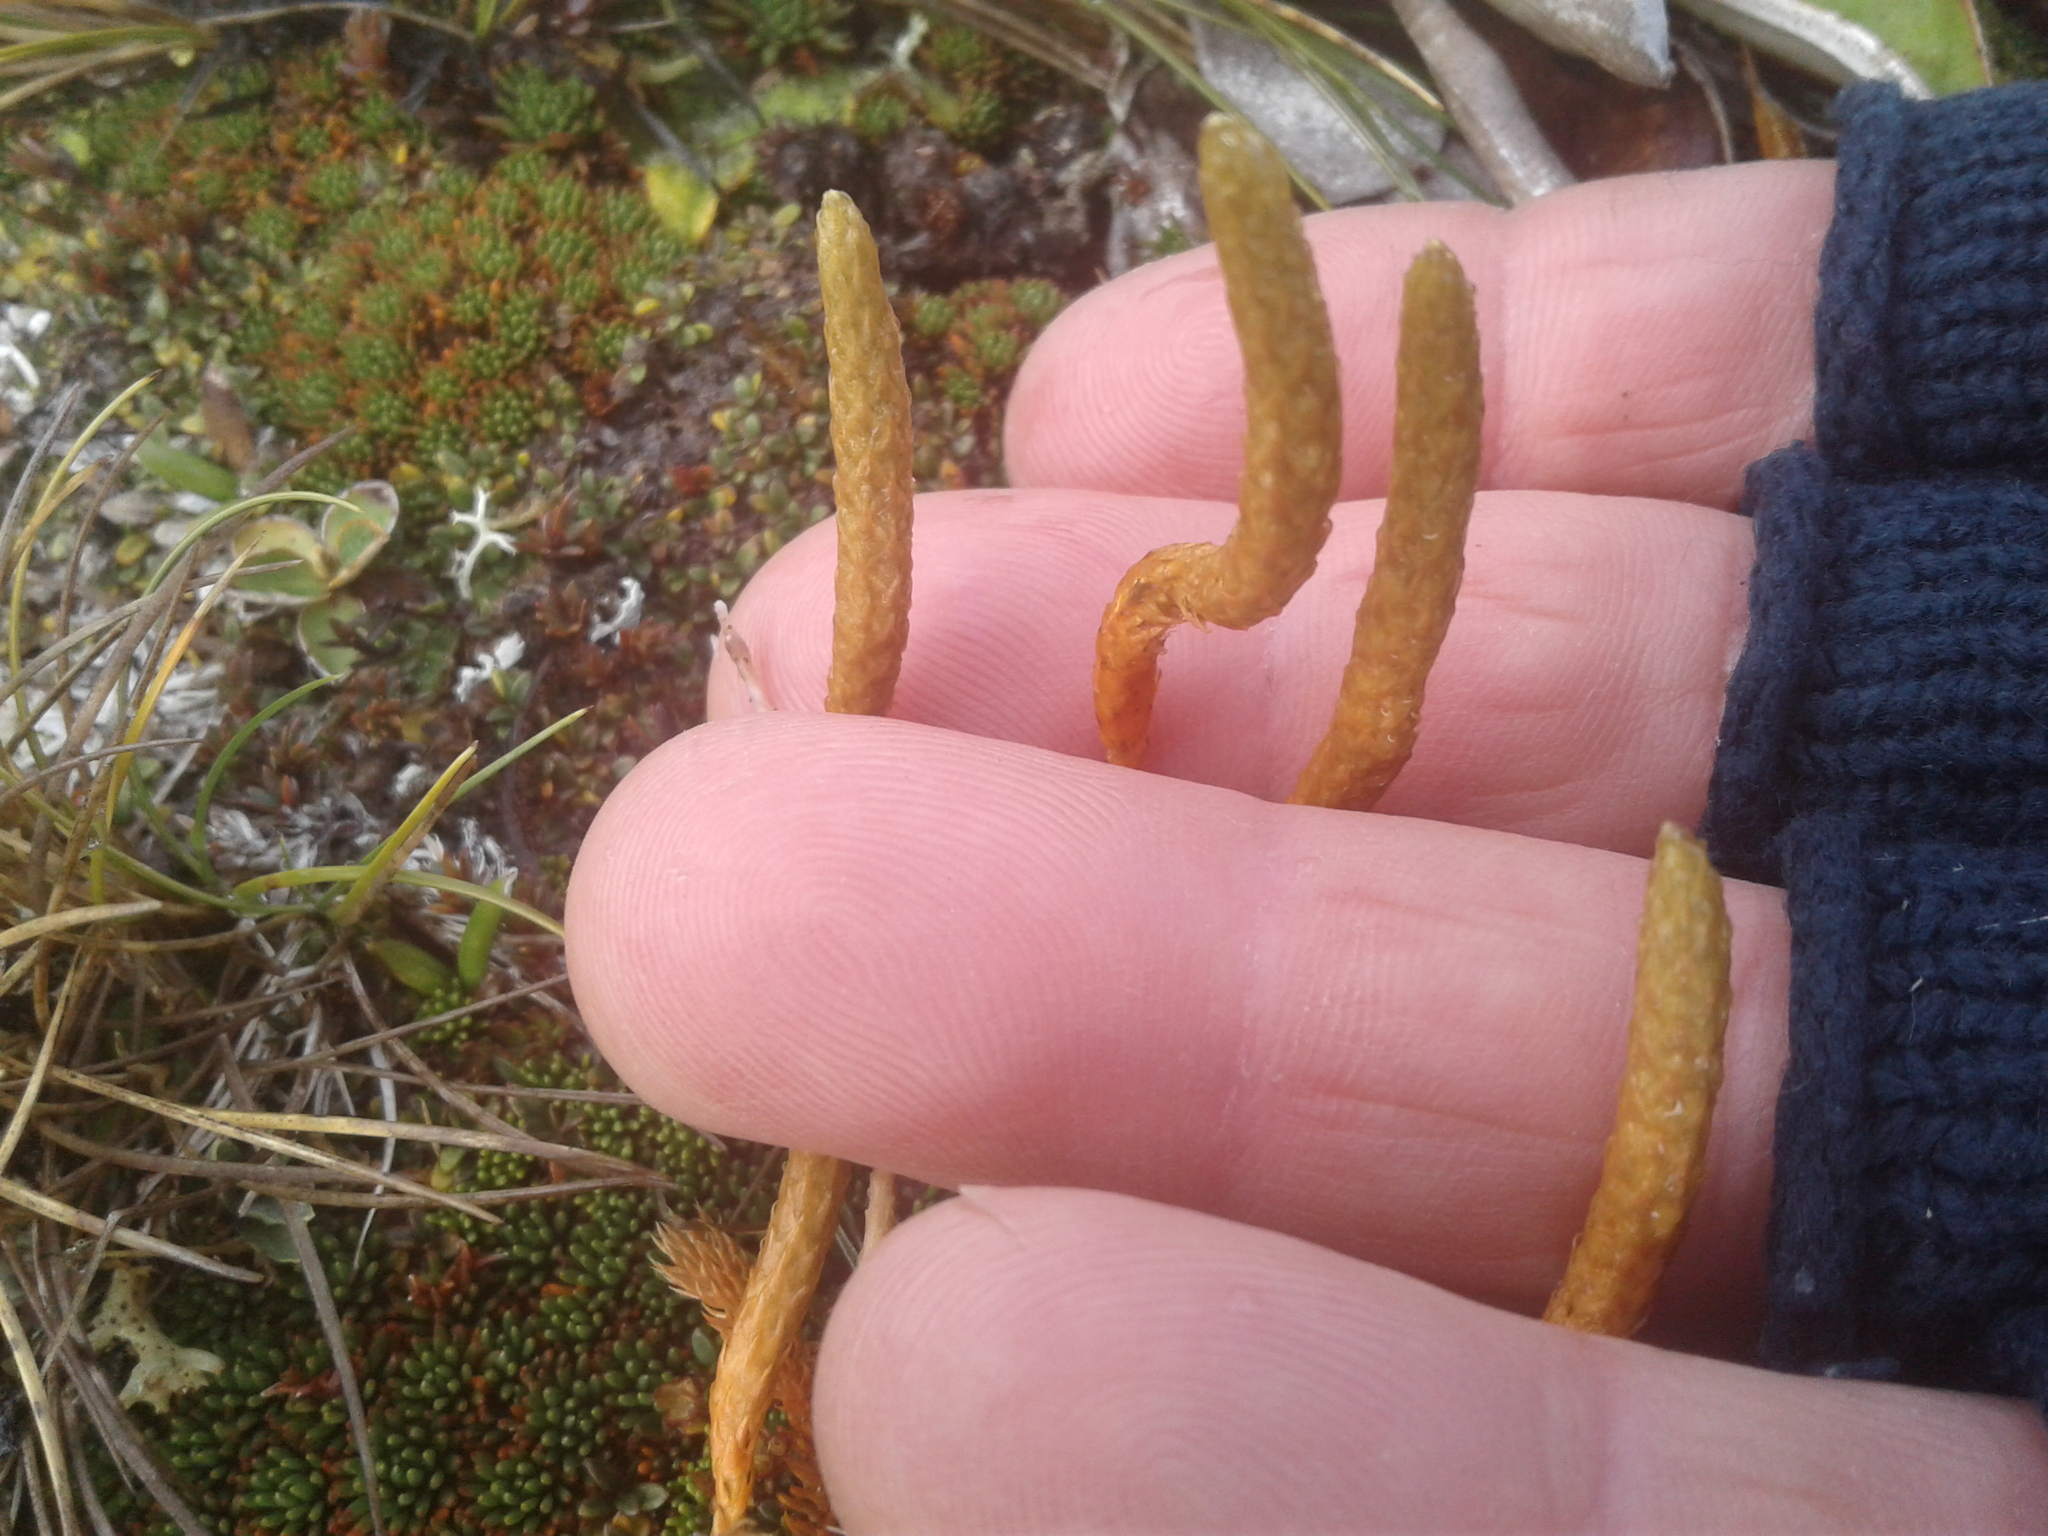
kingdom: Plantae
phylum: Tracheophyta
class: Lycopodiopsida
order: Lycopodiales
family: Lycopodiaceae
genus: Austrolycopodium
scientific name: Austrolycopodium fastigiatum
